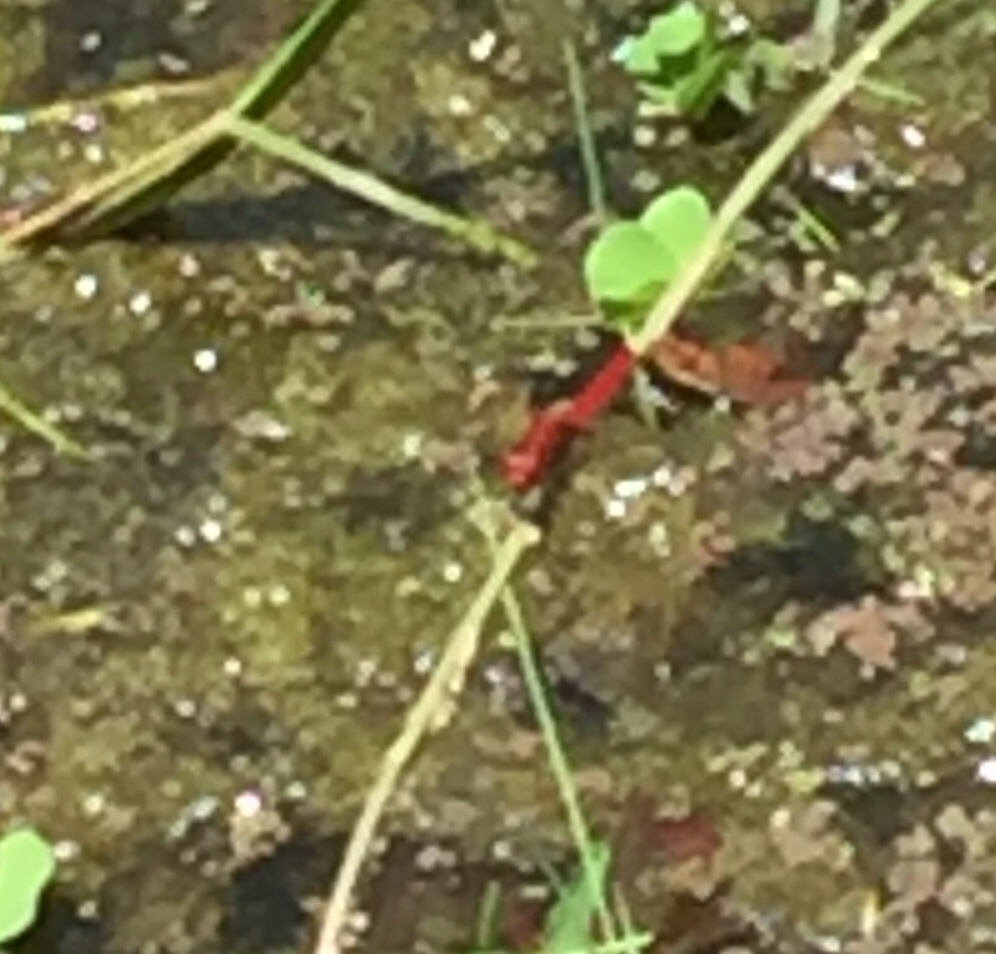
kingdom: Animalia
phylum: Arthropoda
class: Insecta
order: Odonata
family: Libellulidae
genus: Crocothemis
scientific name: Crocothemis servilia
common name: Scarlet skimmer
